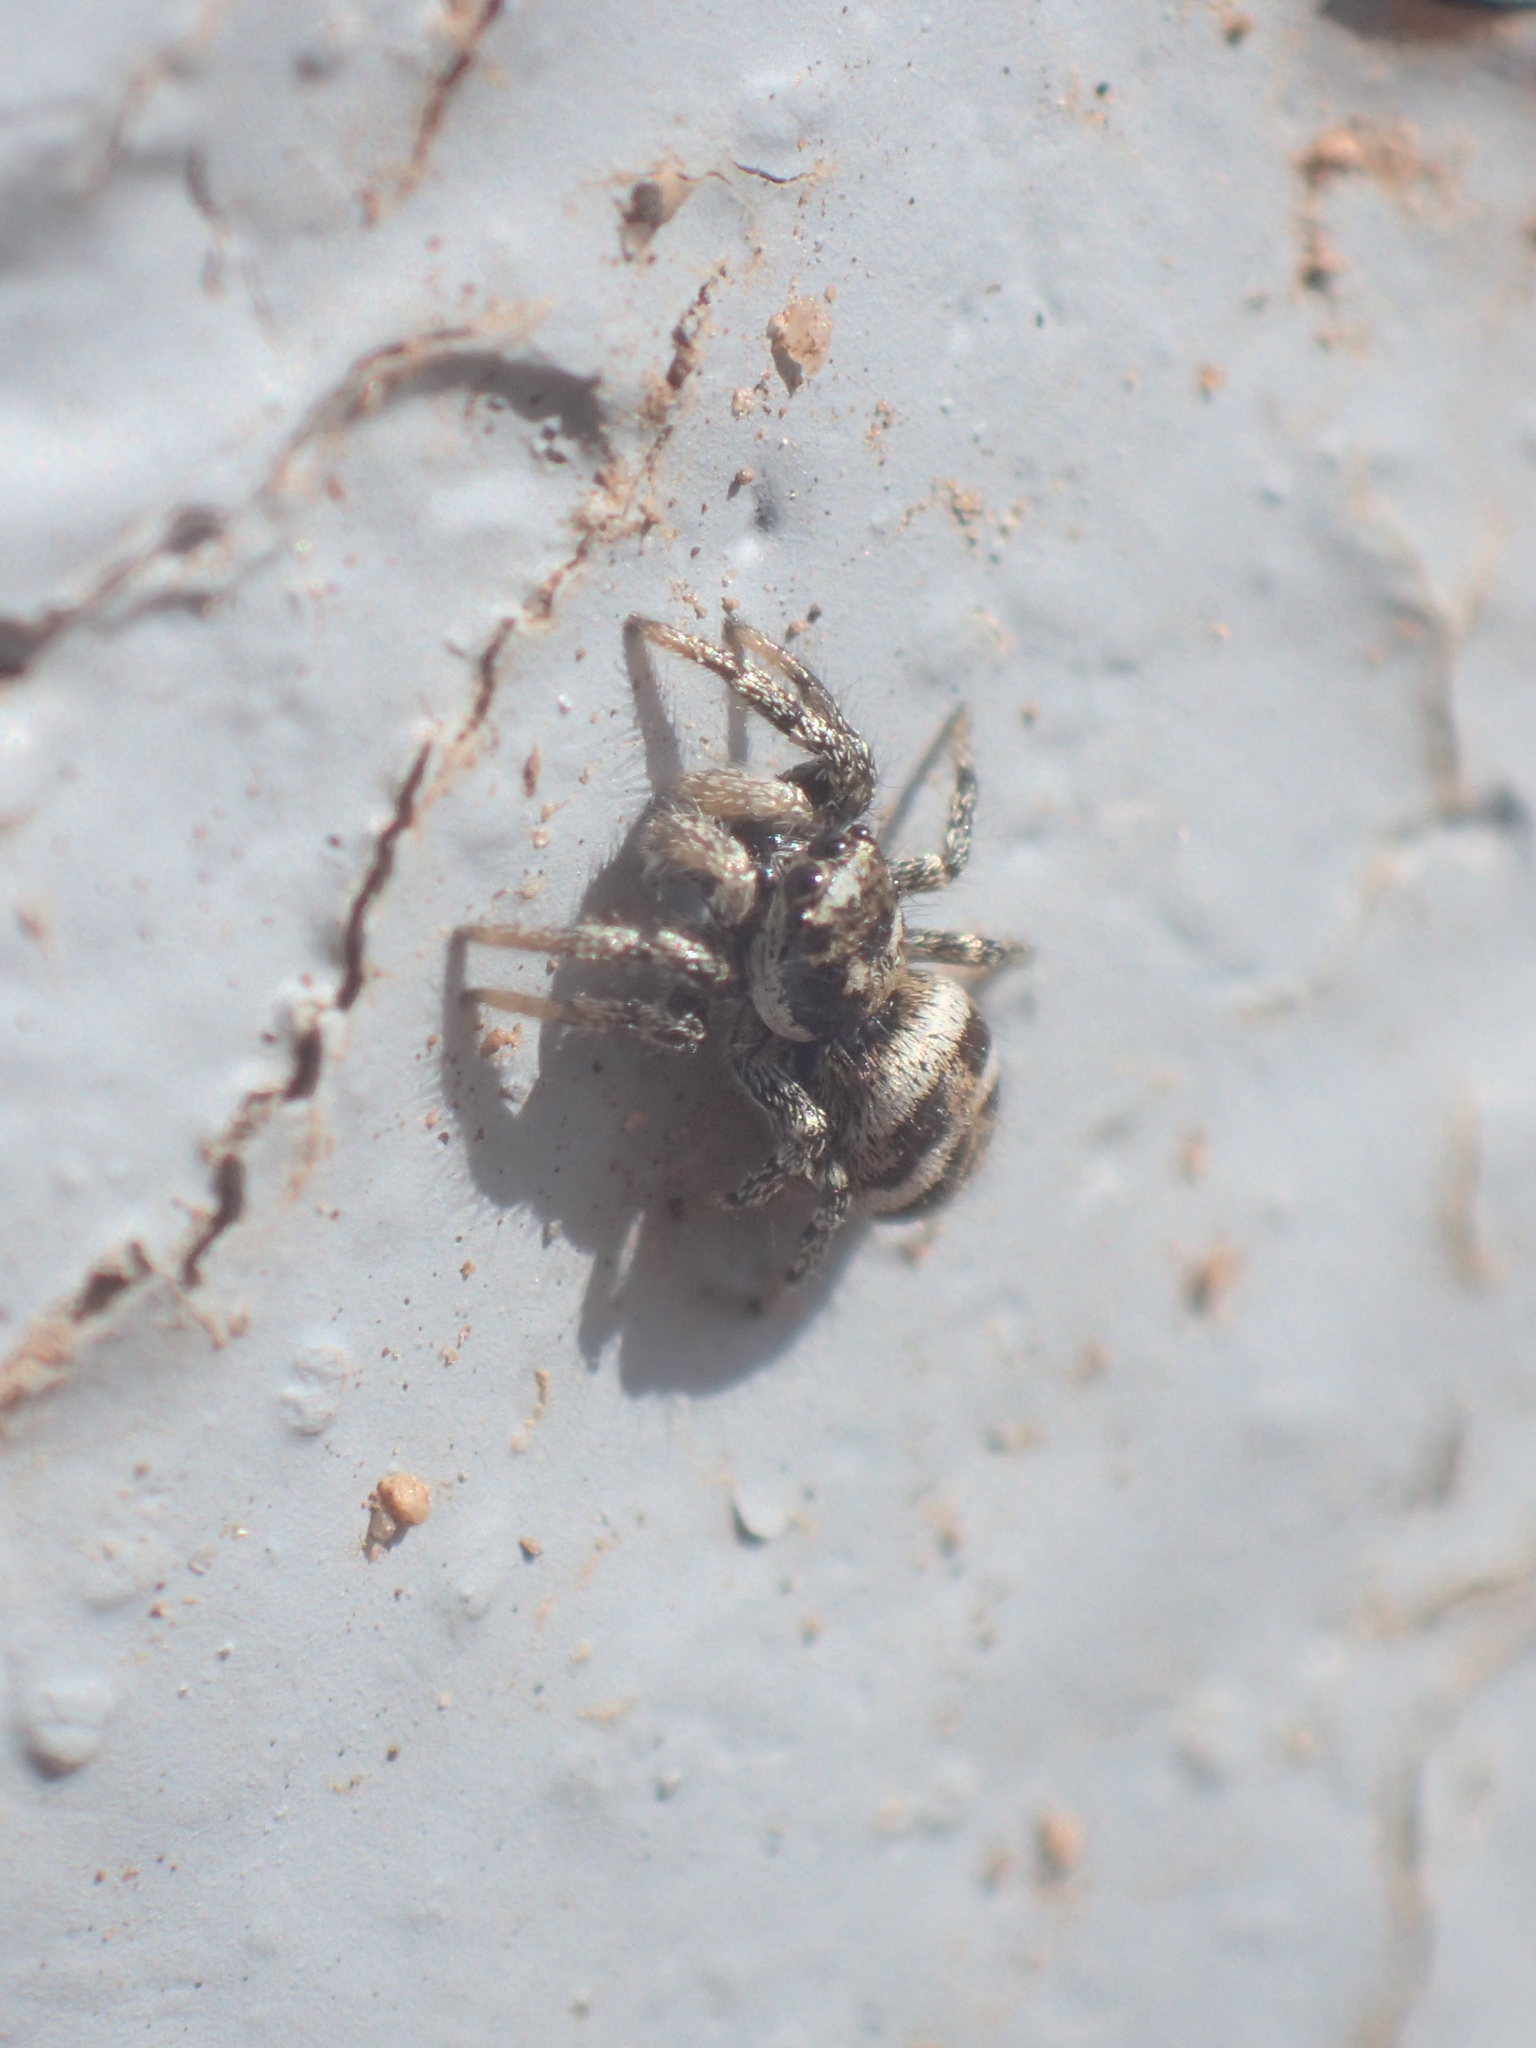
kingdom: Animalia
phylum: Arthropoda
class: Arachnida
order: Araneae
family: Salticidae
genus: Salticus
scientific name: Salticus scenicus
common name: Zebra jumper
